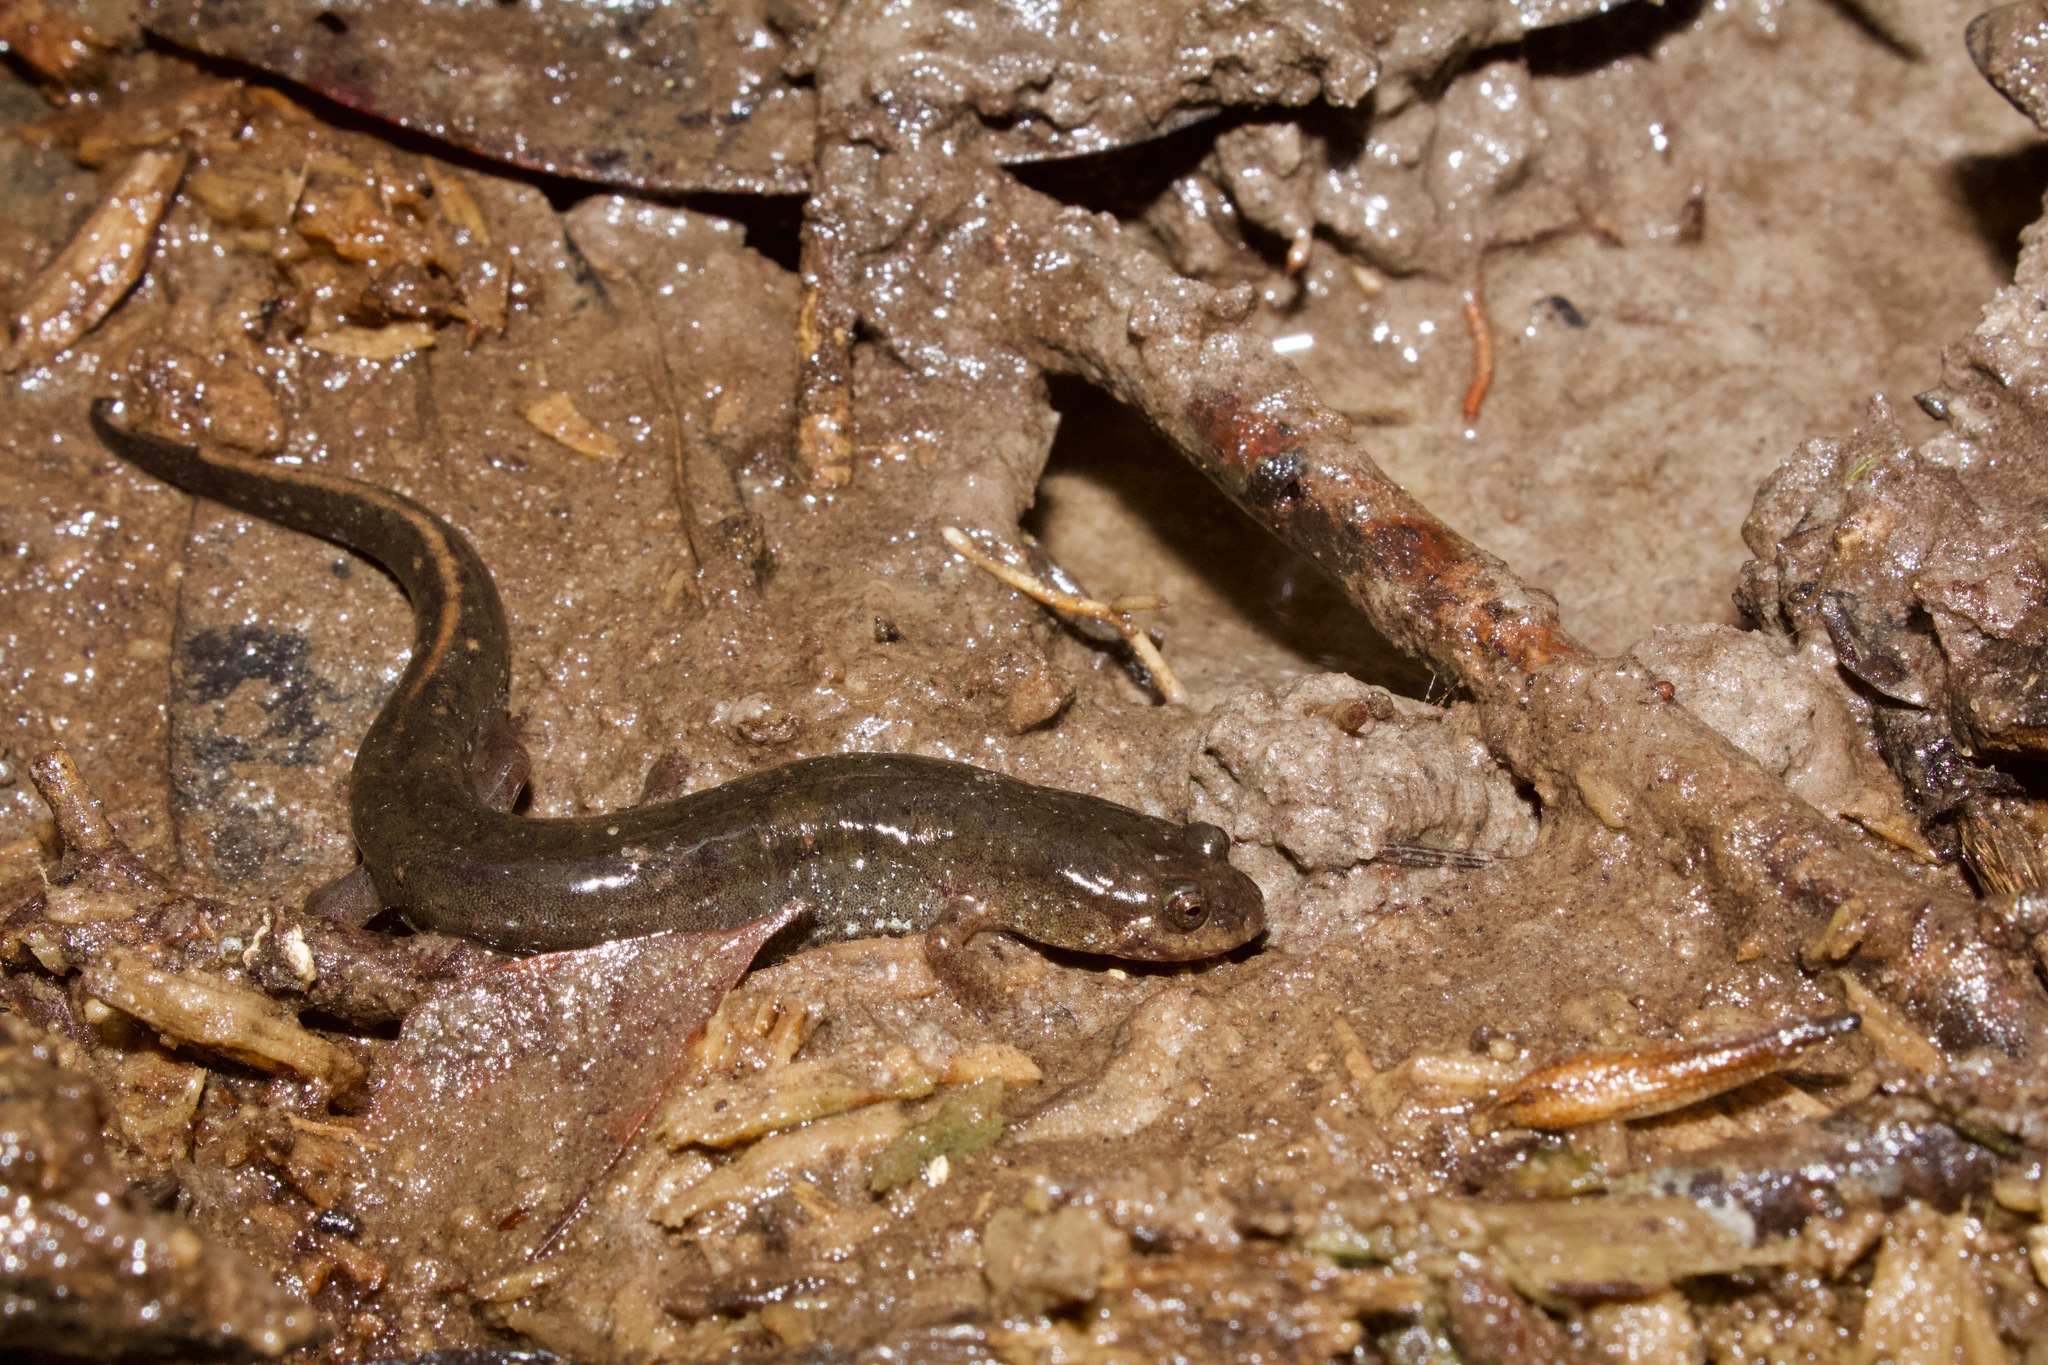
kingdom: Animalia
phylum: Chordata
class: Amphibia
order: Caudata
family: Plethodontidae
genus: Desmognathus
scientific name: Desmognathus valentinei
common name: Valentine's southern dusky salamander
